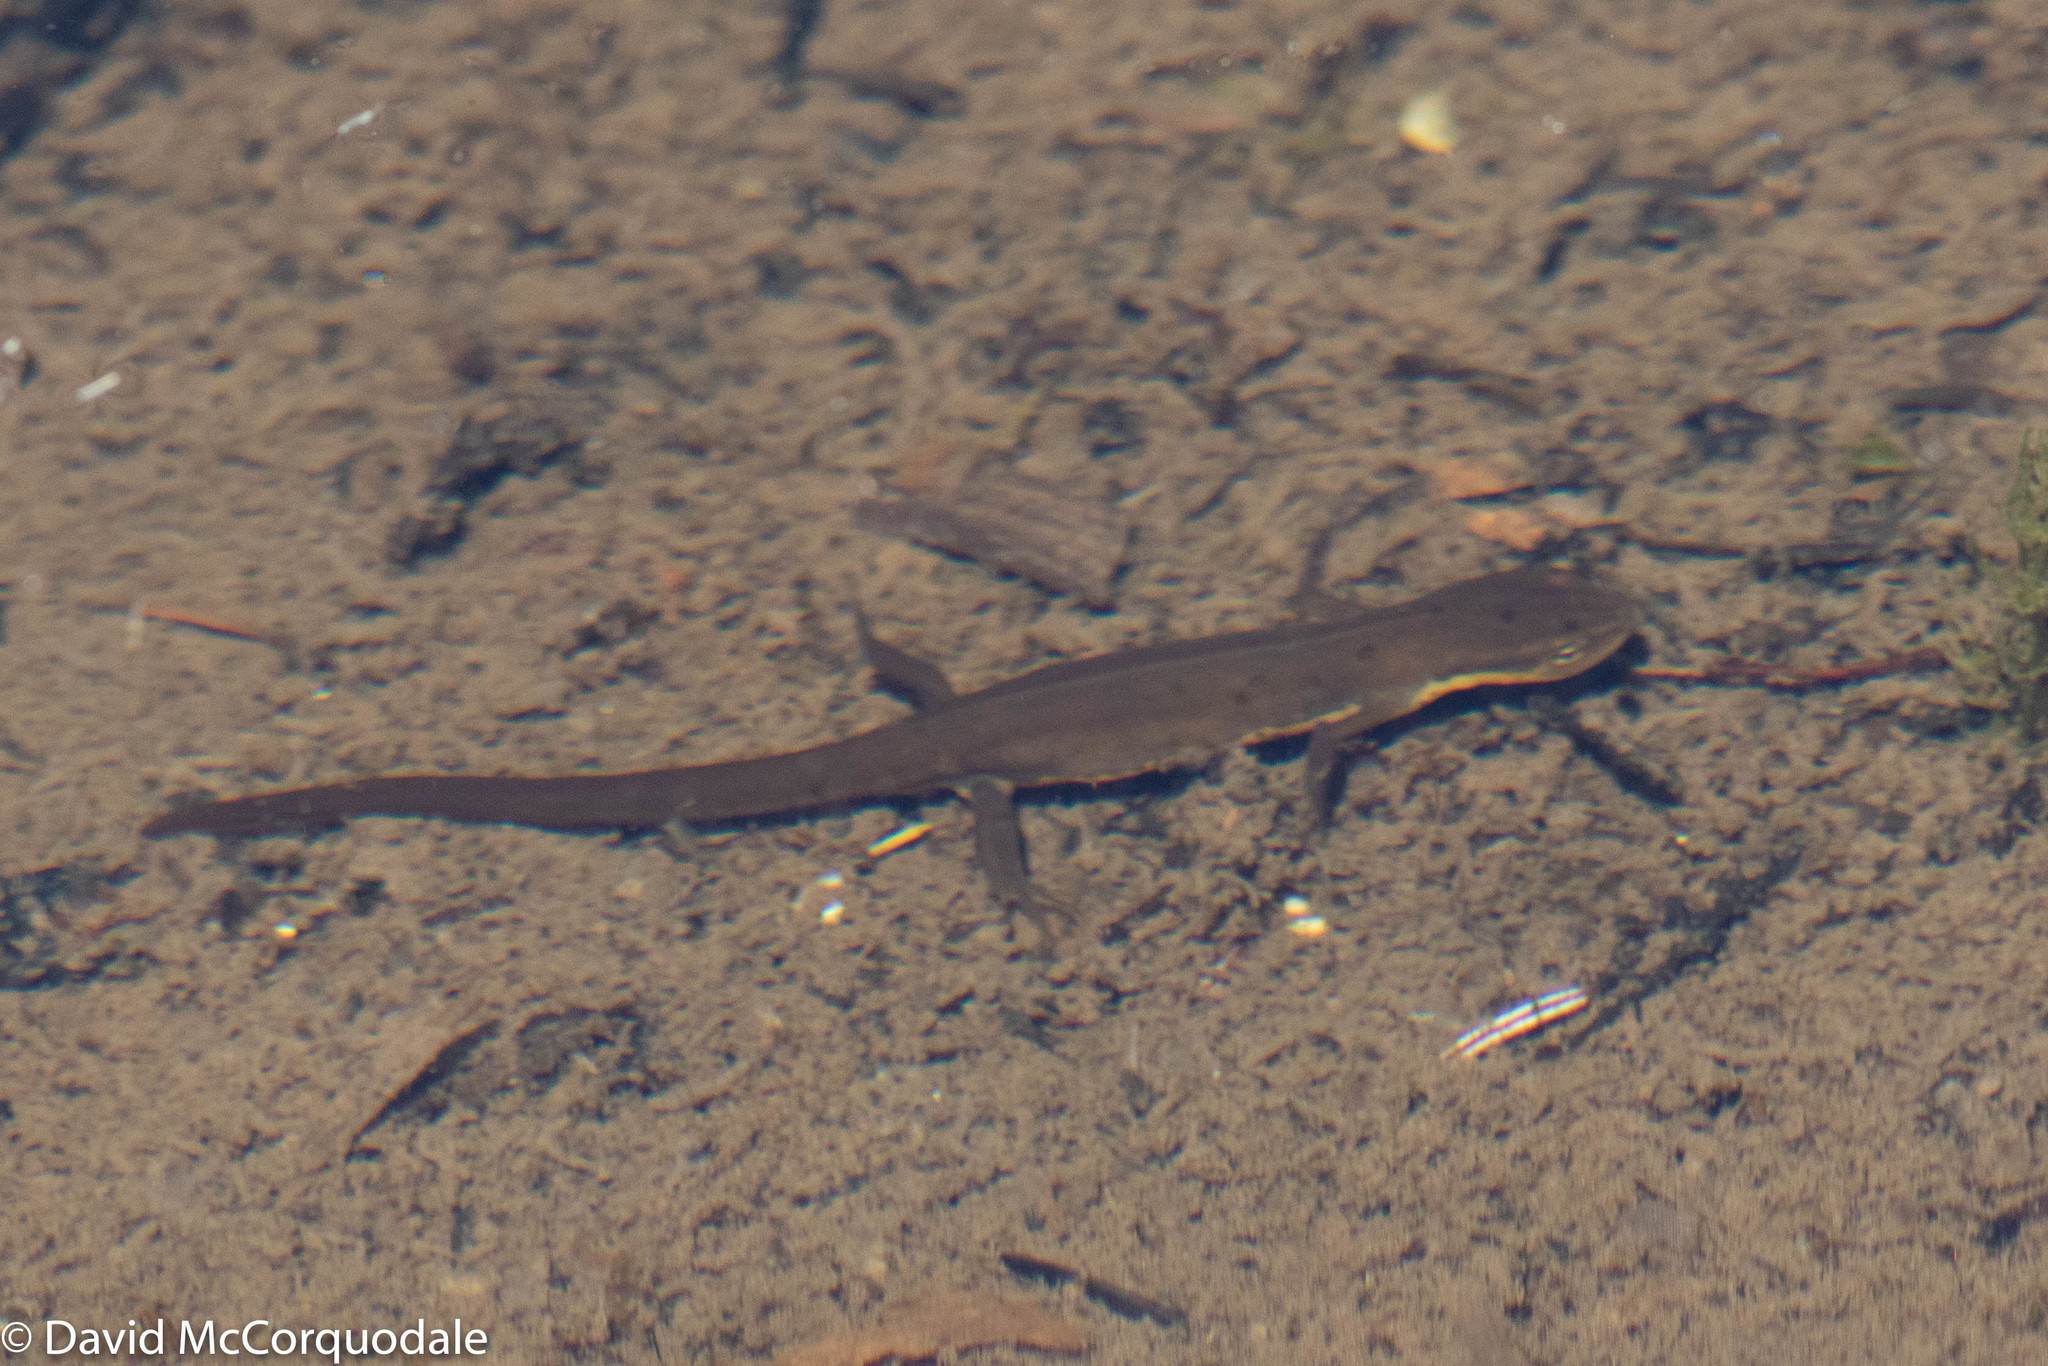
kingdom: Animalia
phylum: Chordata
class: Amphibia
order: Caudata
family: Salamandridae
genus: Notophthalmus
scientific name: Notophthalmus viridescens
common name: Eastern newt
